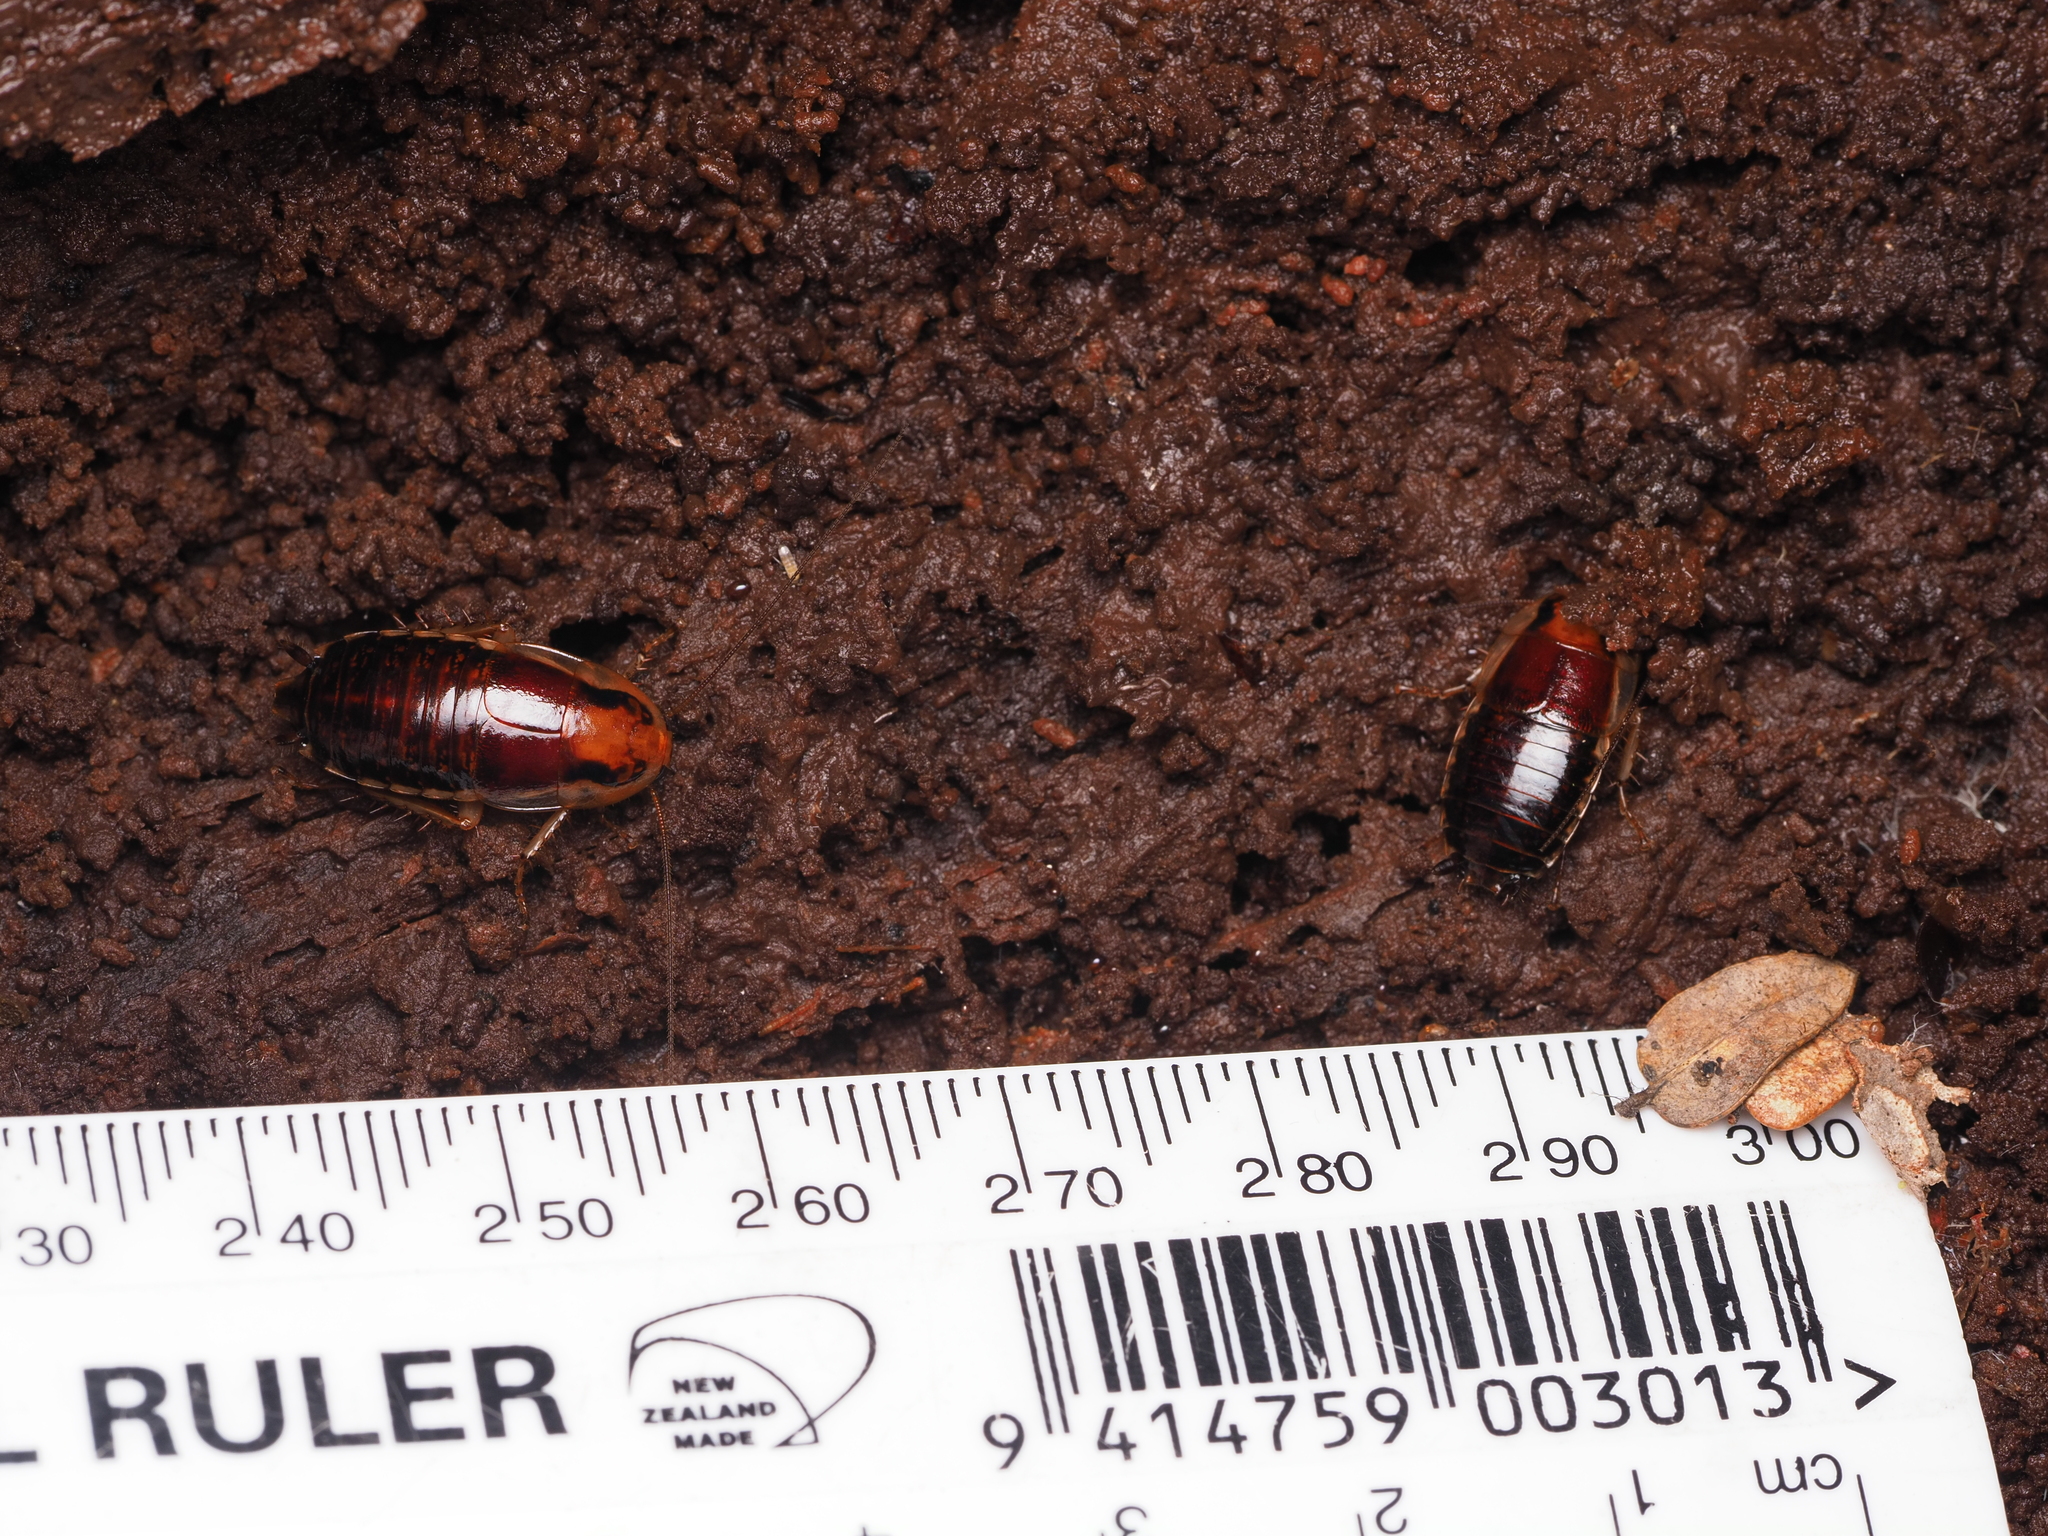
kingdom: Animalia
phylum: Arthropoda
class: Insecta
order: Blattodea
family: Blattidae
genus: Celatoblatta
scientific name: Celatoblatta undulivitta
